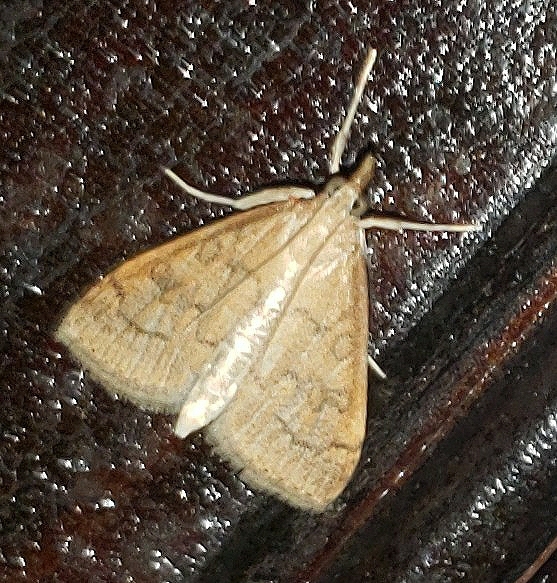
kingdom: Animalia
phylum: Arthropoda
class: Insecta
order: Lepidoptera
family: Crambidae
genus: Udea
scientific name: Udea rubigalis
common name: Celery leaftier moth
